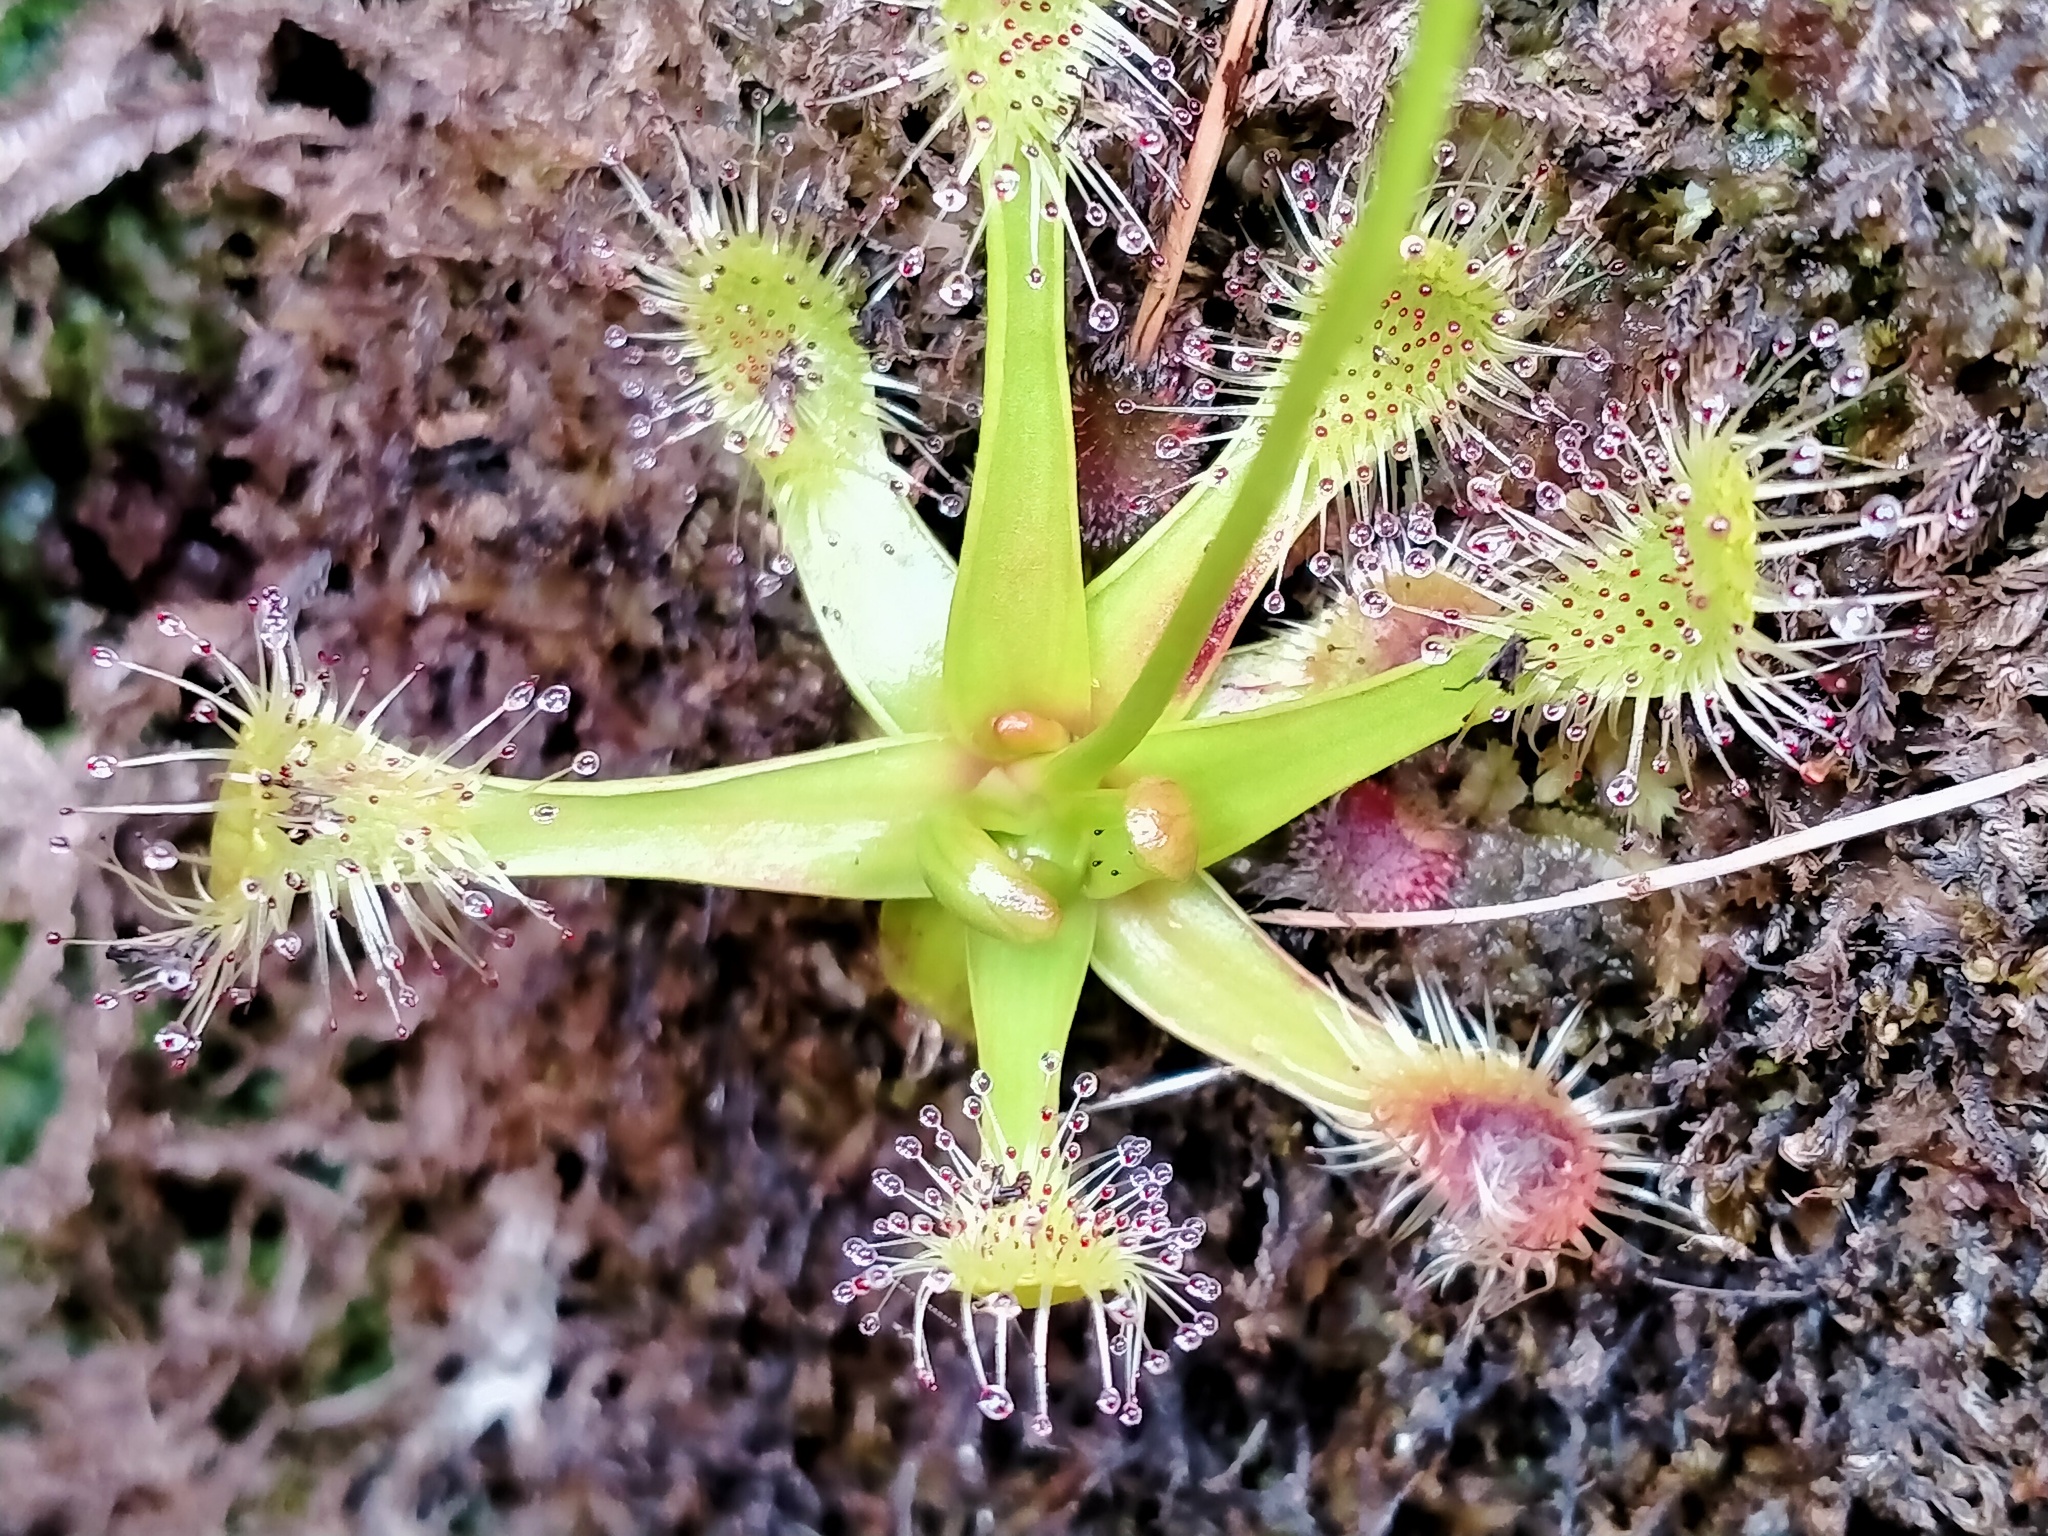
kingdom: Plantae
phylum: Tracheophyta
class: Magnoliopsida
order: Caryophyllales
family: Droseraceae
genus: Drosera
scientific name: Drosera stenopetala
